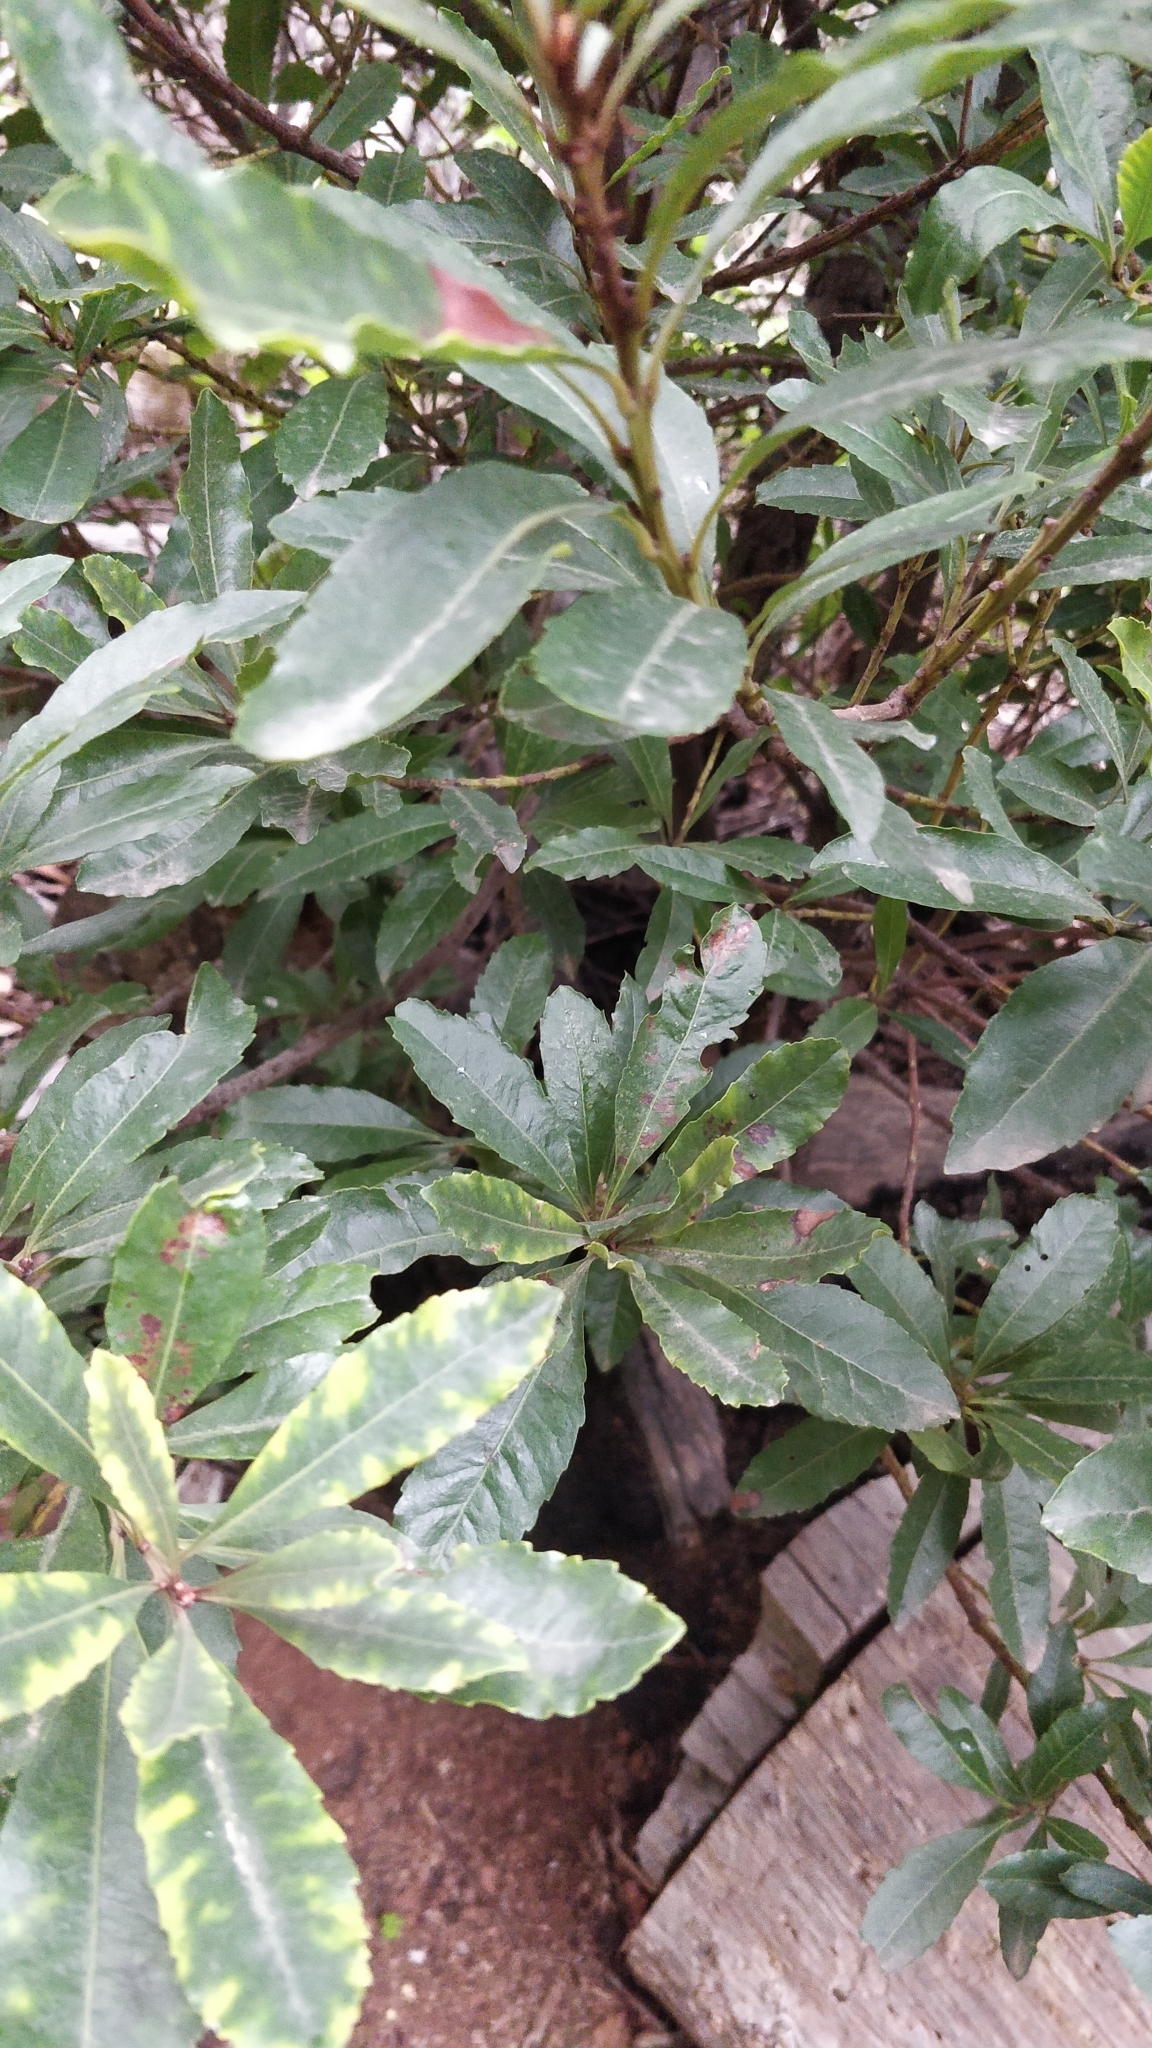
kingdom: Plantae
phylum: Tracheophyta
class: Magnoliopsida
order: Fagales
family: Myricaceae
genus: Morella
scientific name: Morella faya
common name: Firetree
